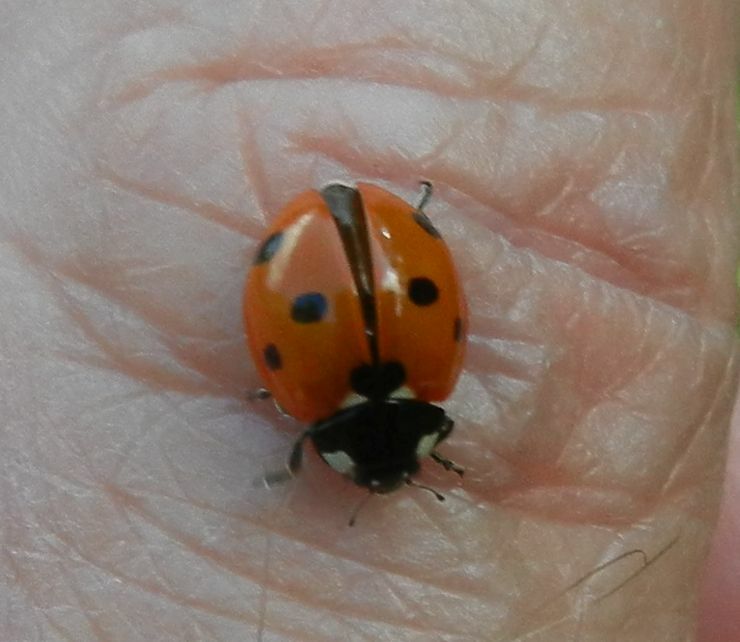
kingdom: Animalia
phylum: Arthropoda
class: Insecta
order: Coleoptera
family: Coccinellidae
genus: Coccinella
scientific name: Coccinella septempunctata
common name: Sevenspotted lady beetle
